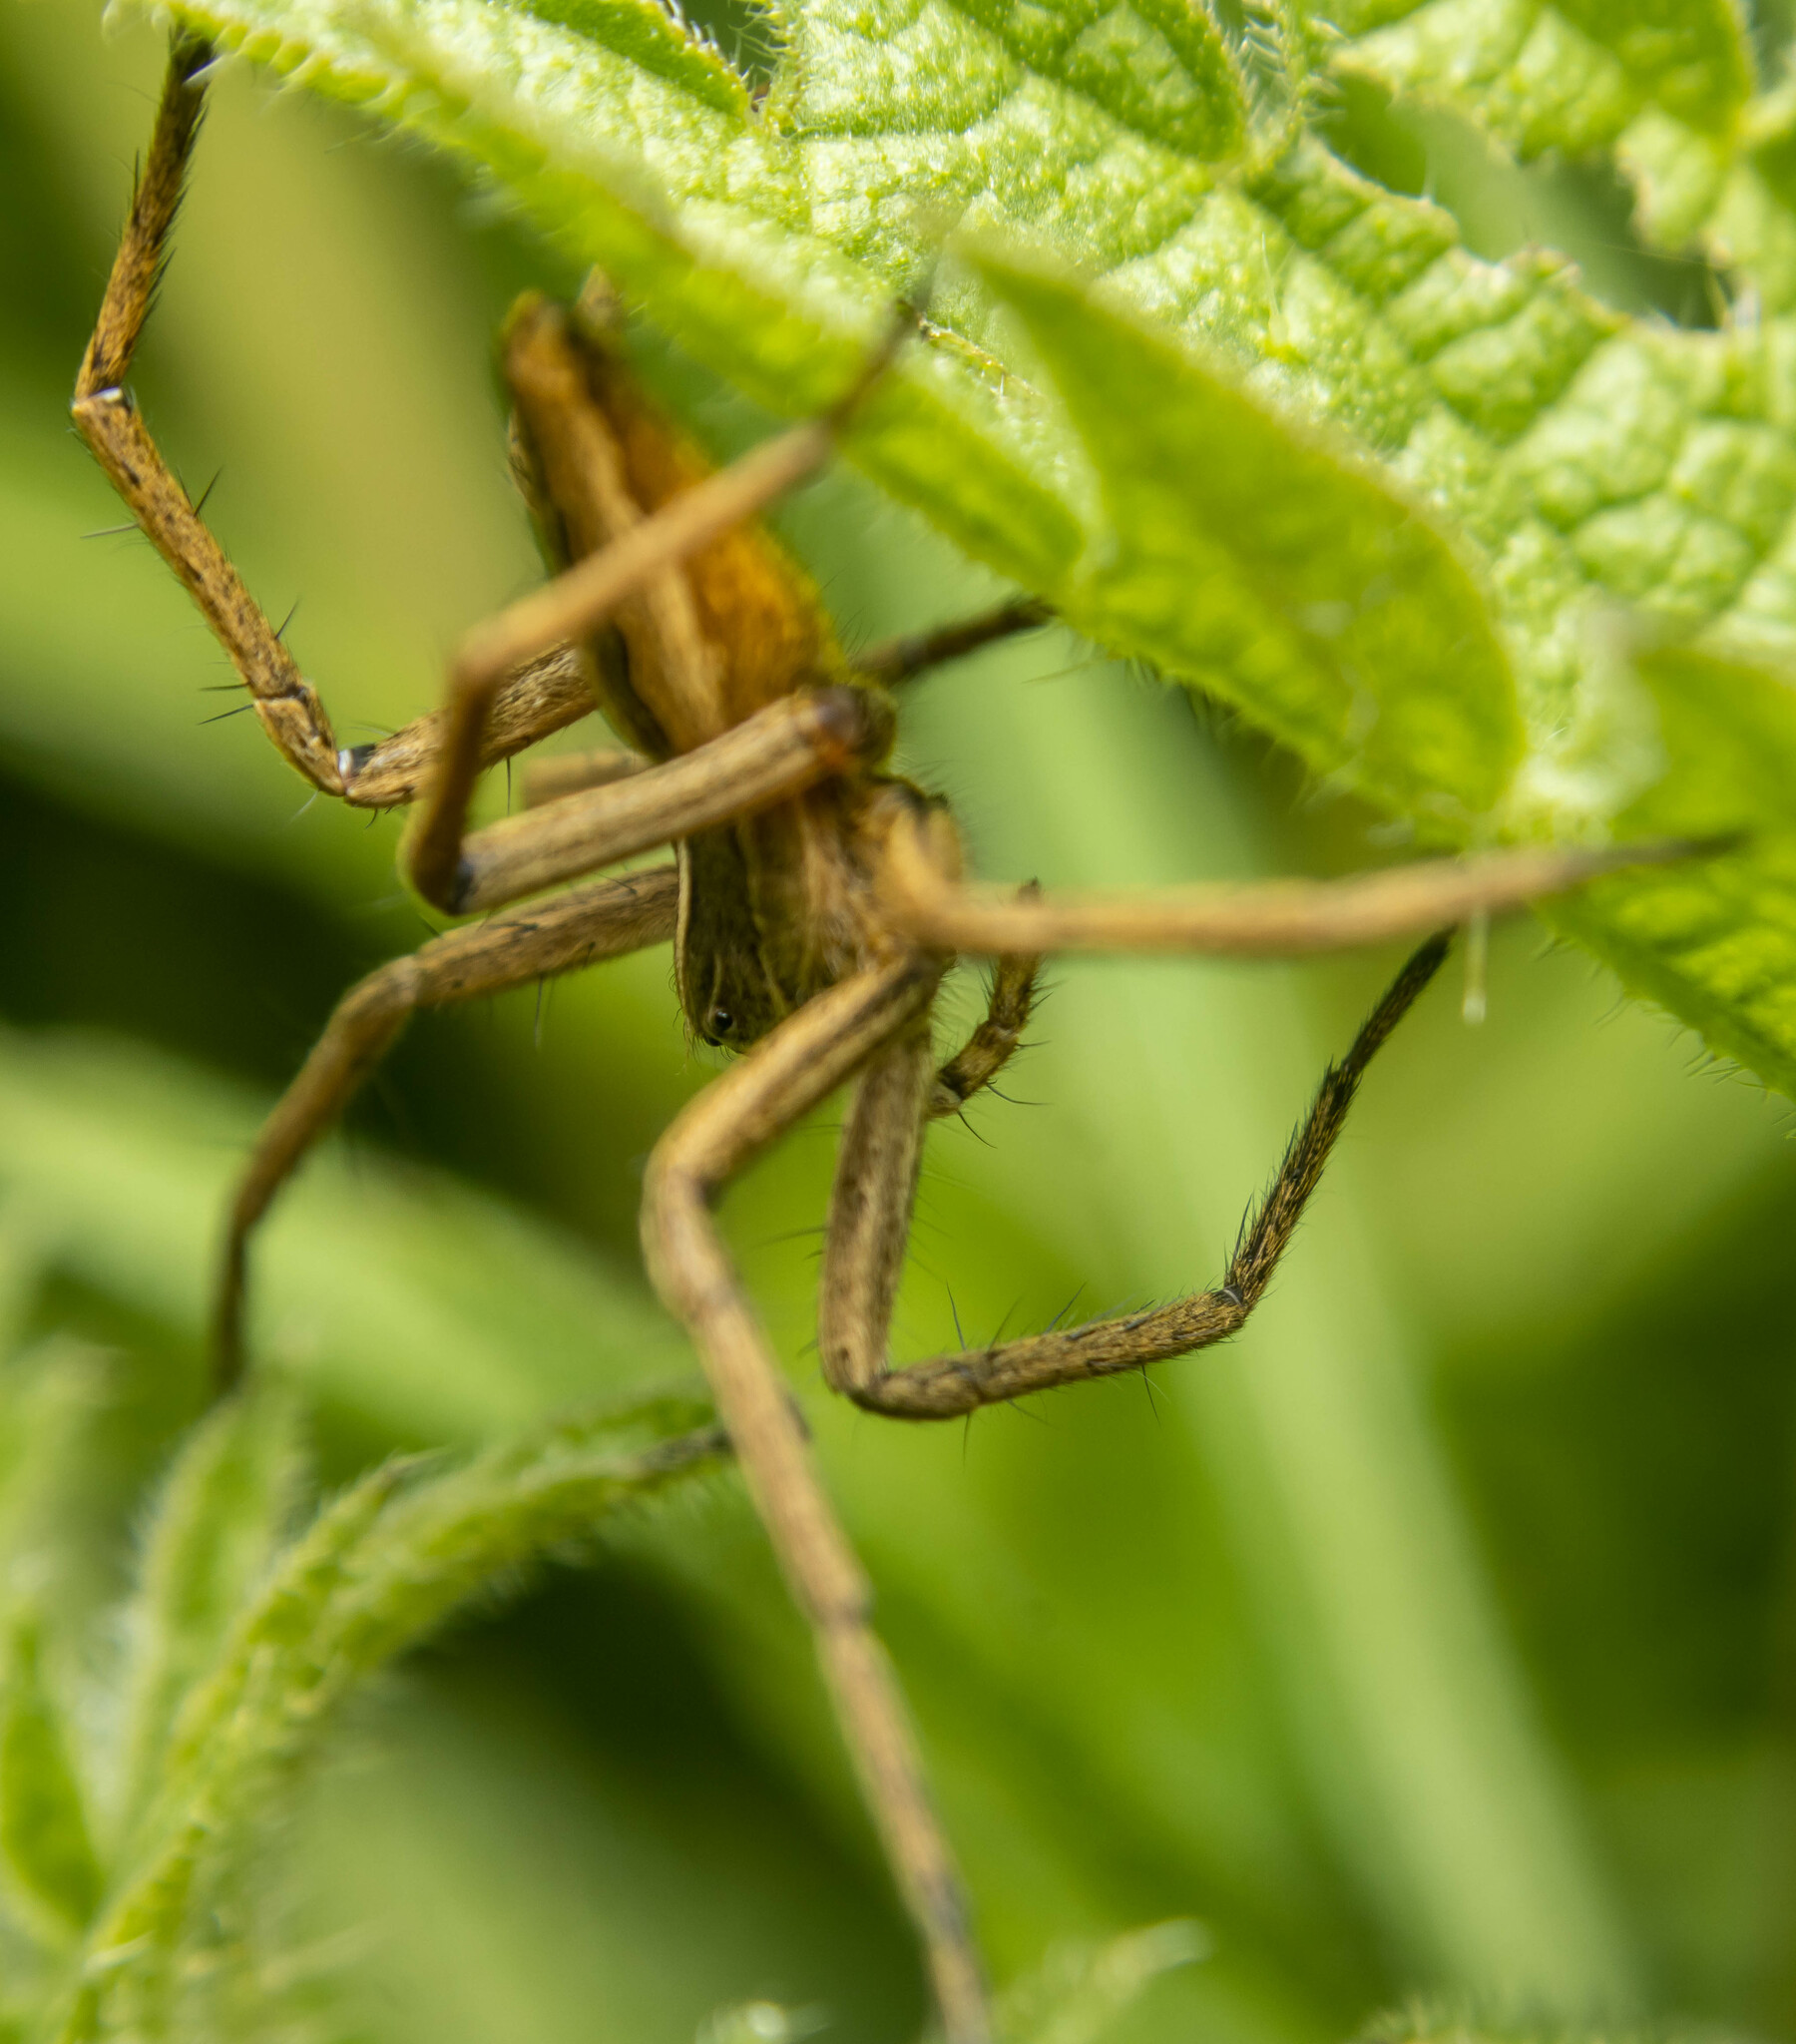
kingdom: Animalia
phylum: Arthropoda
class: Arachnida
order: Araneae
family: Pisauridae
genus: Pisaura
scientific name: Pisaura mirabilis
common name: Tent spider
